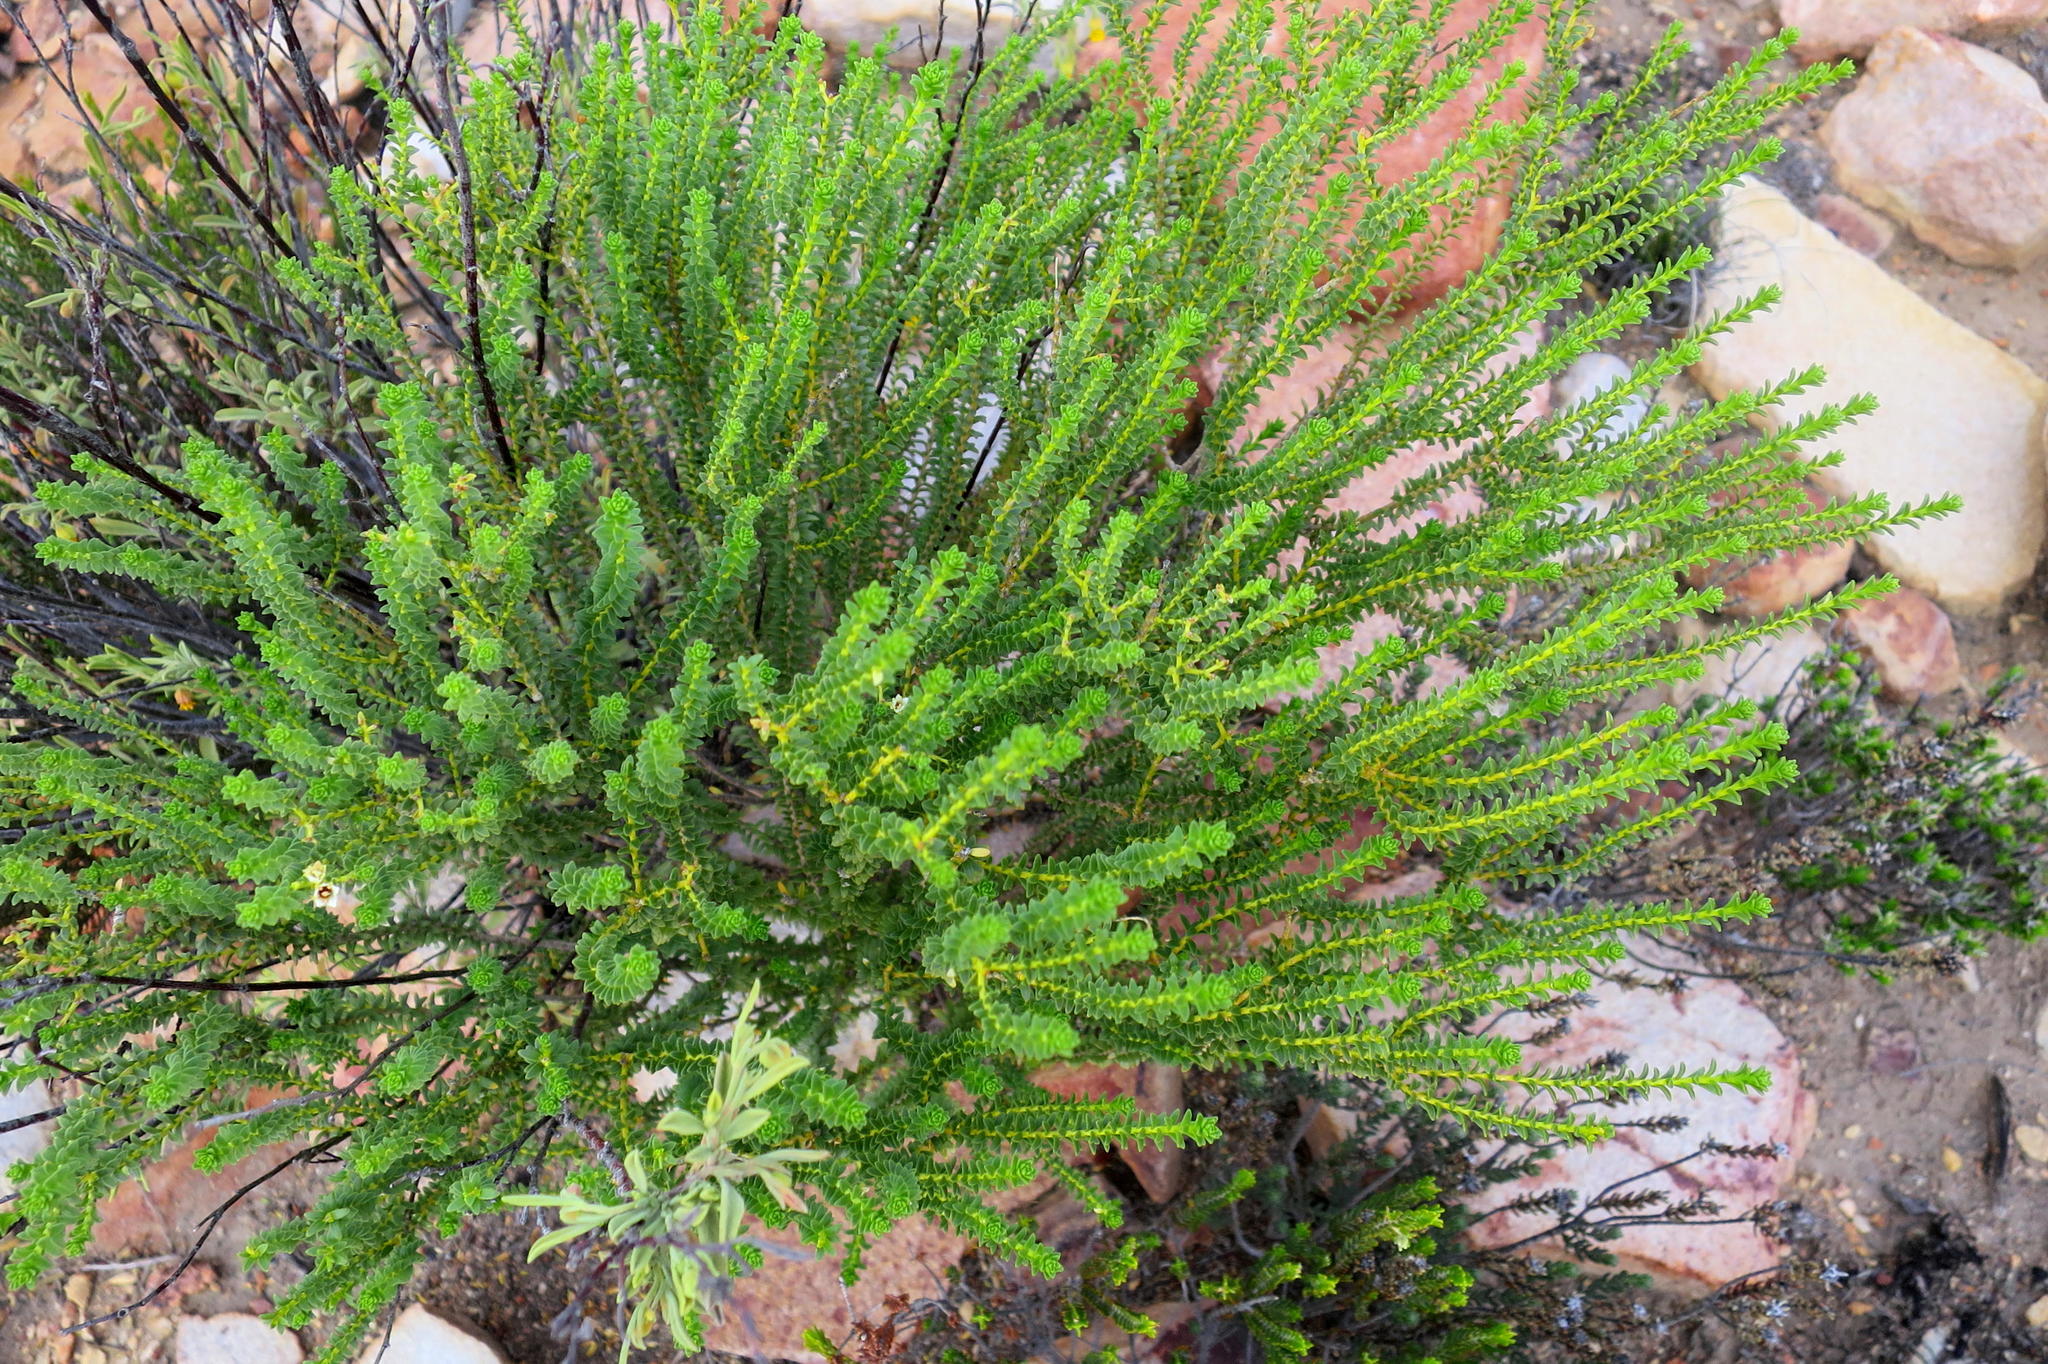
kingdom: Plantae
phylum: Tracheophyta
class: Magnoliopsida
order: Sapindales
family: Rutaceae
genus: Diosma
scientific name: Diosma recurva
